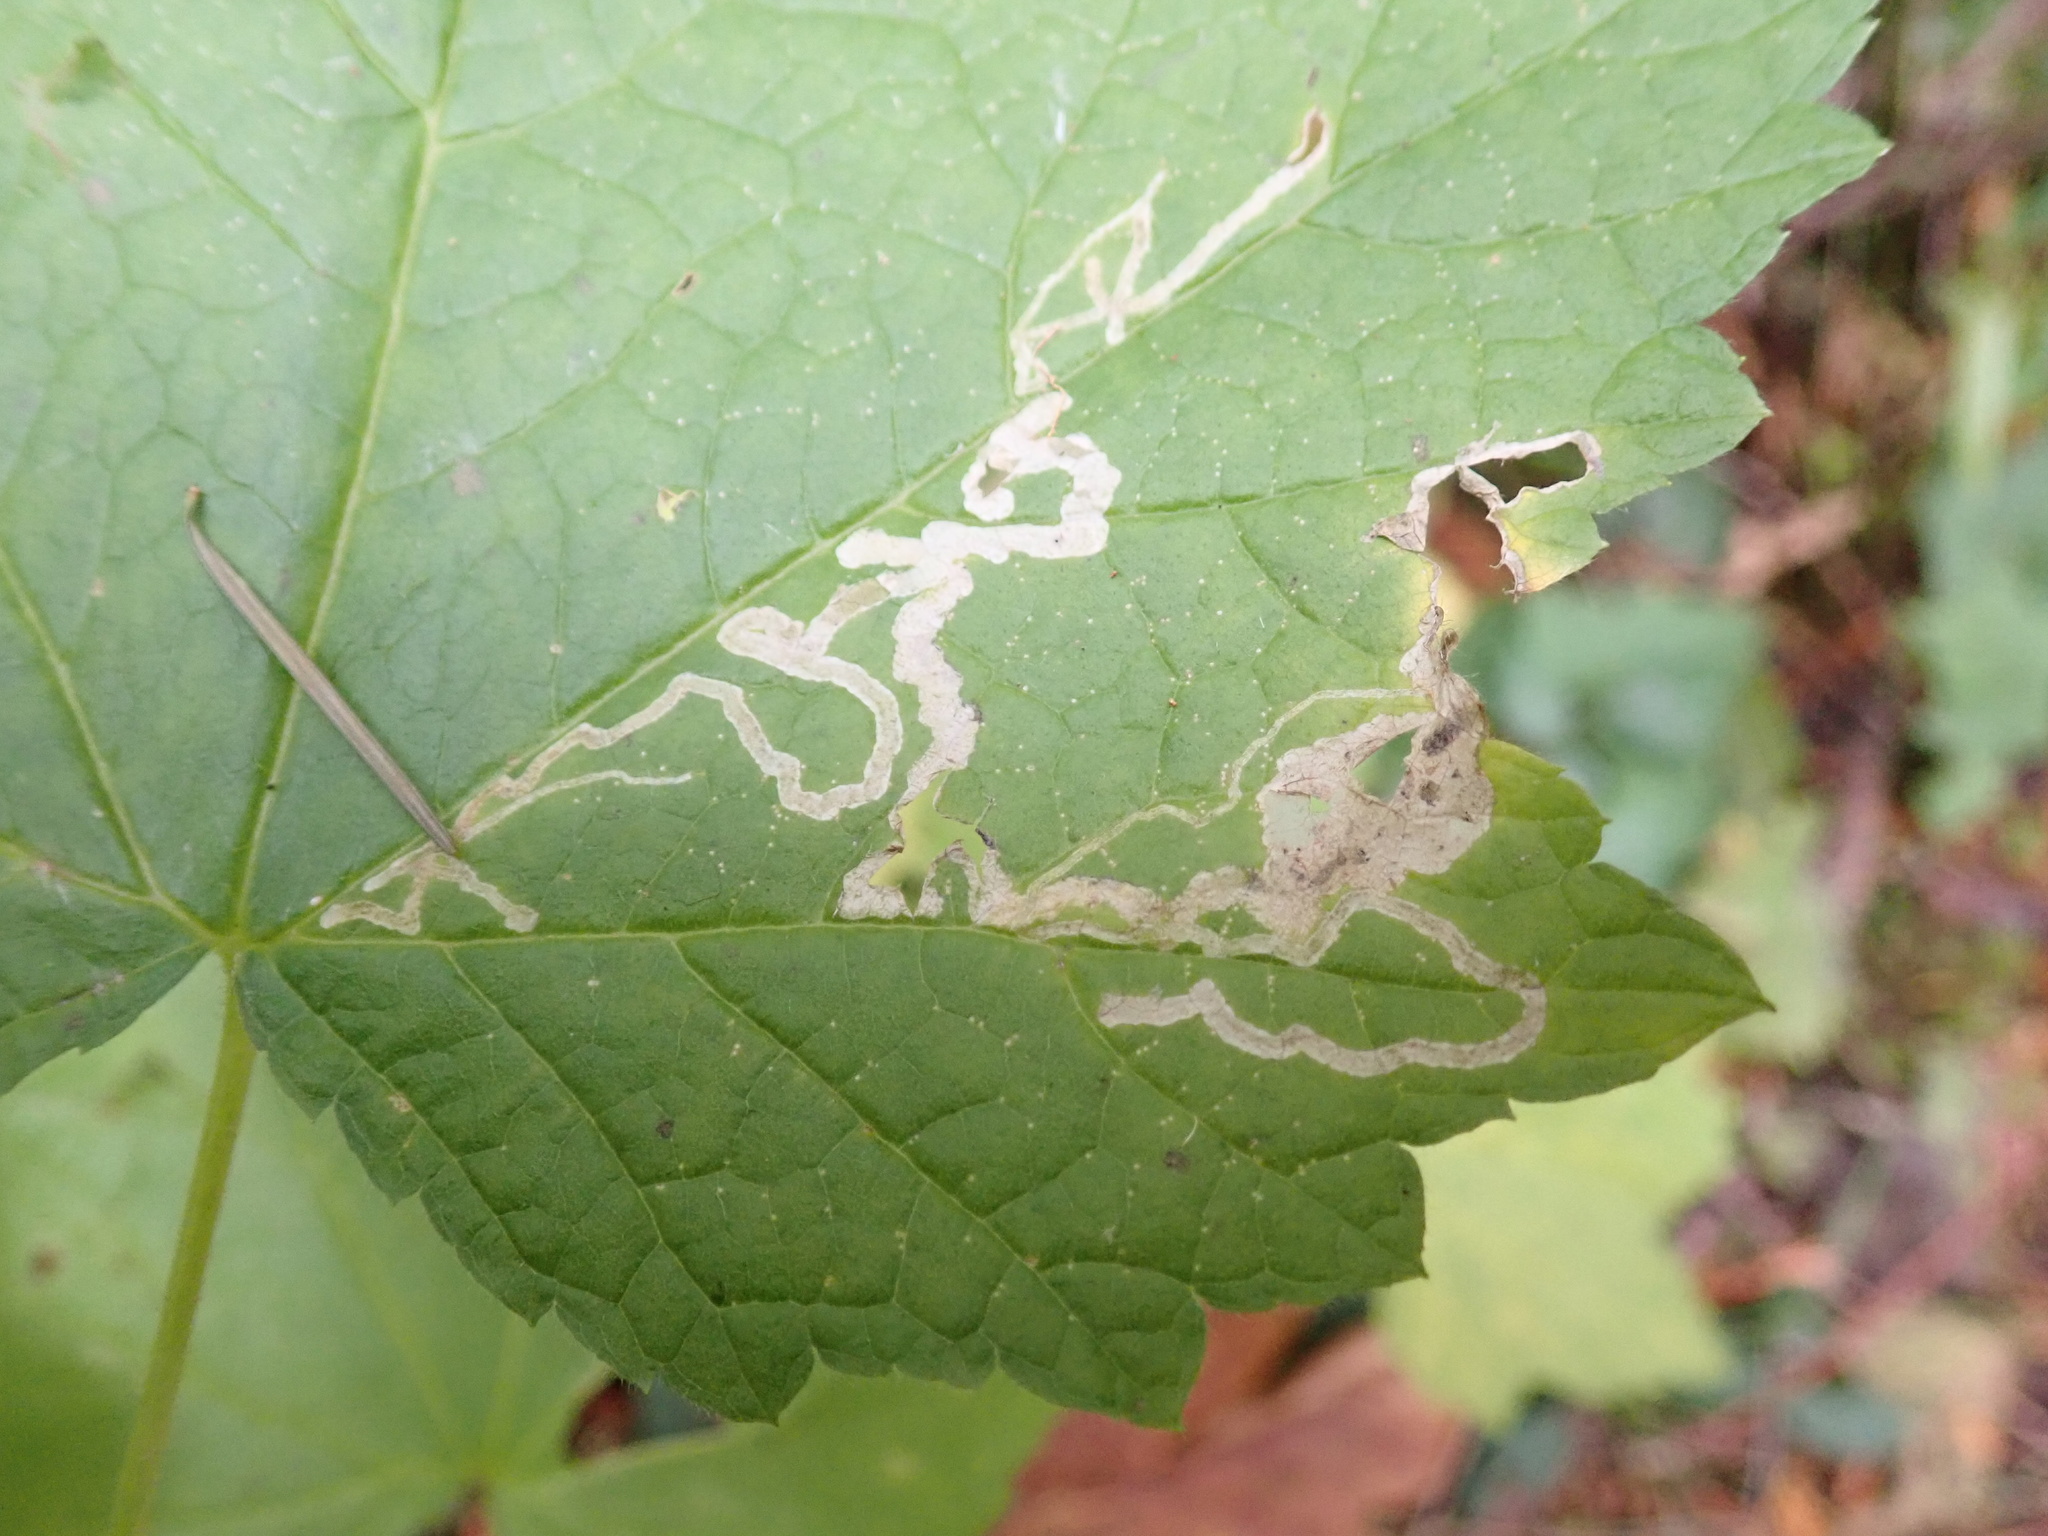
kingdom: Animalia
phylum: Arthropoda
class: Insecta
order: Diptera
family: Agromyzidae
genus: Agromyza
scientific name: Agromyza vockerothi
